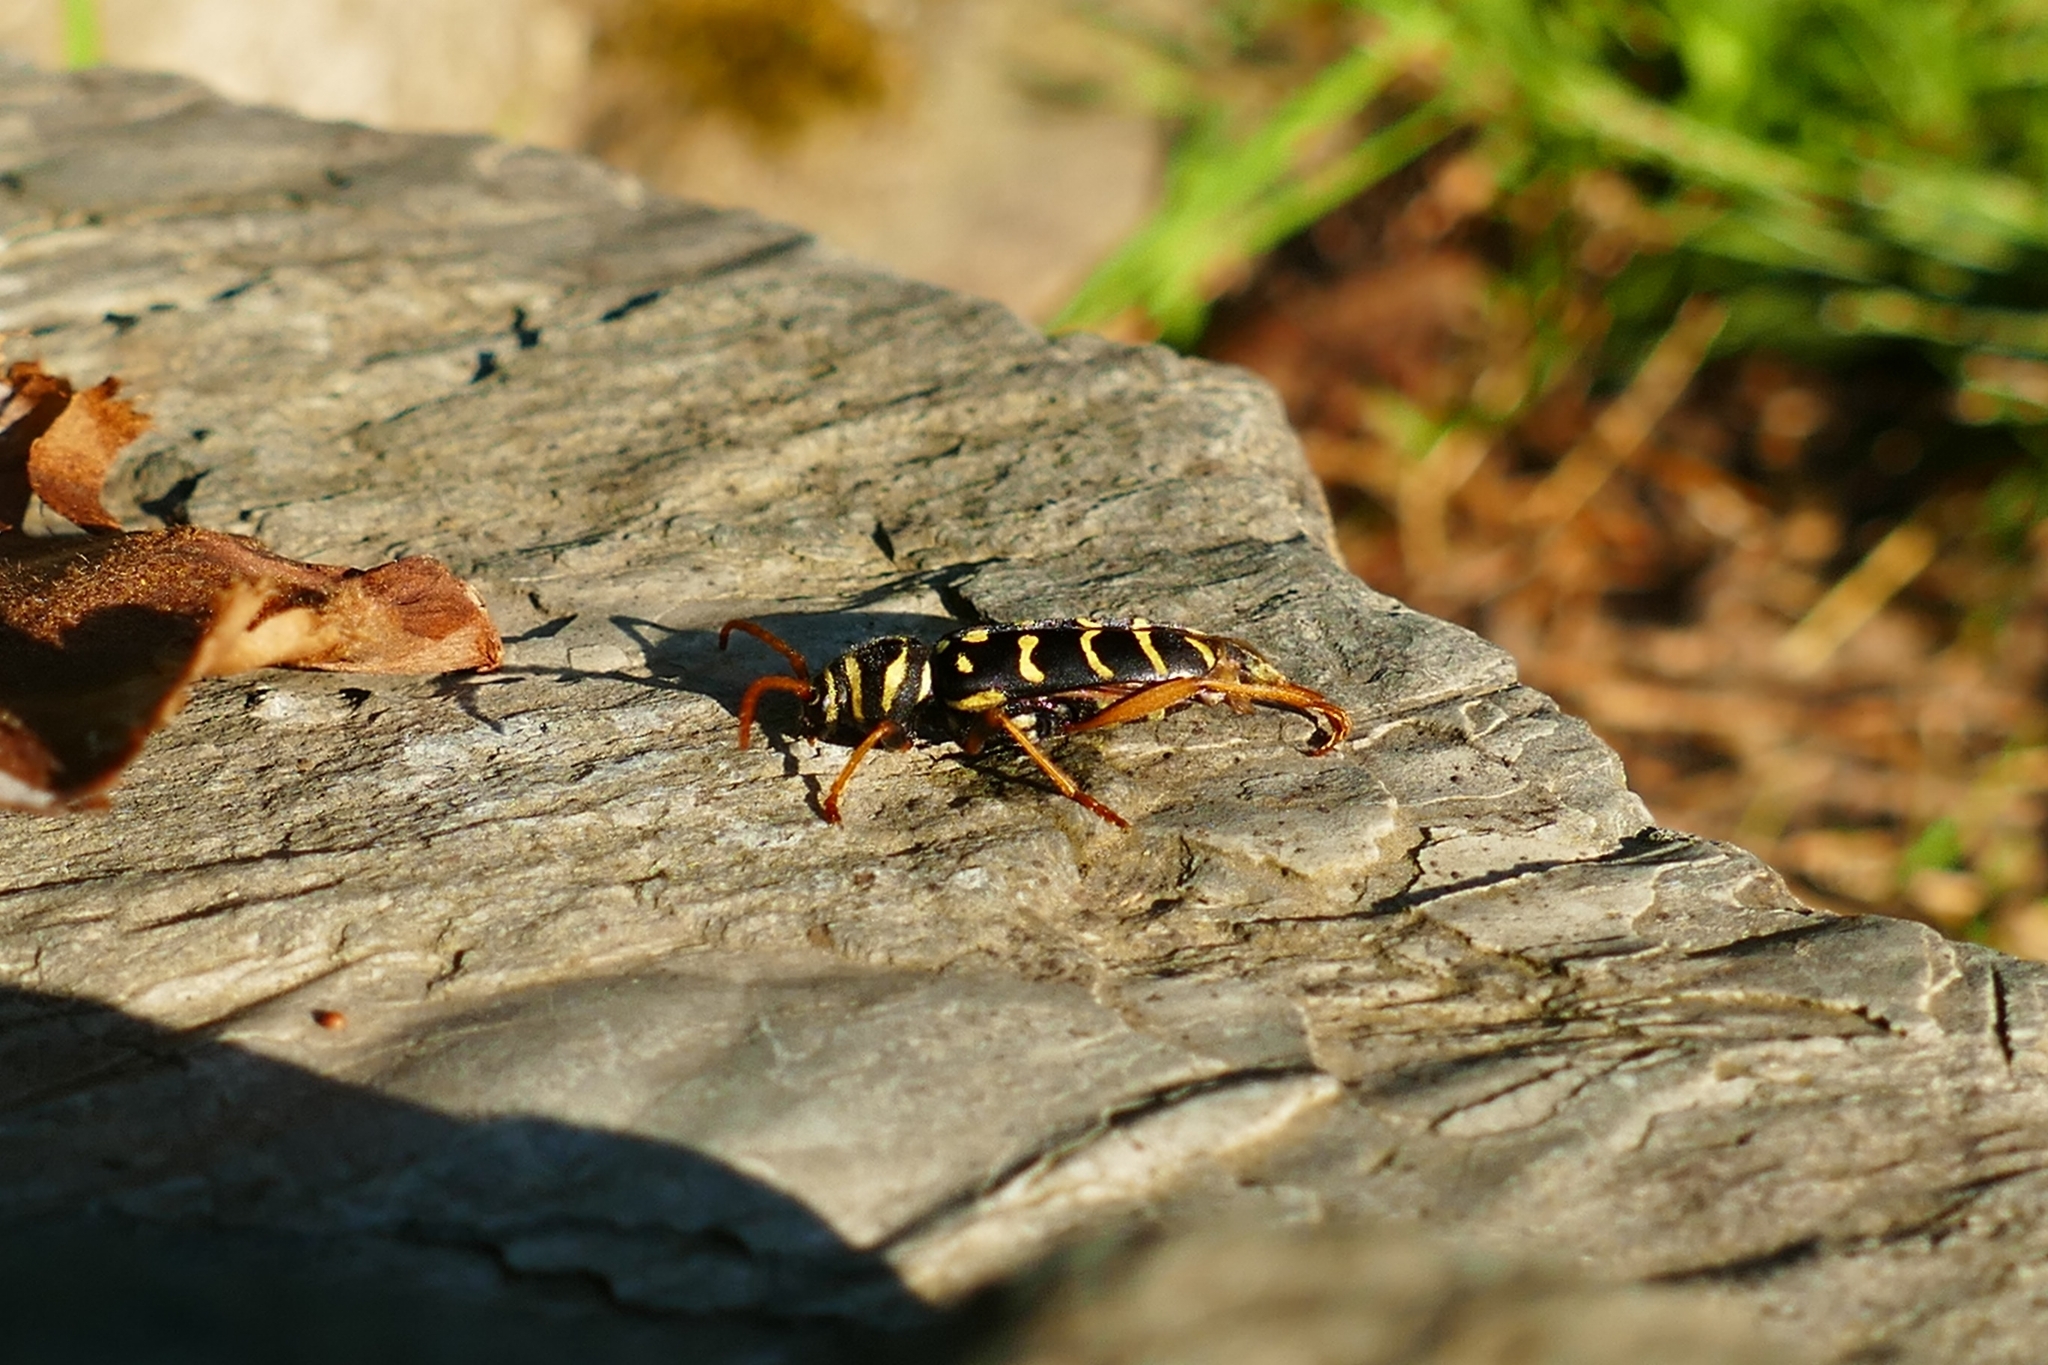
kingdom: Animalia
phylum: Arthropoda
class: Insecta
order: Coleoptera
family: Cerambycidae
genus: Plagionotus
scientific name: Plagionotus arcuatus
